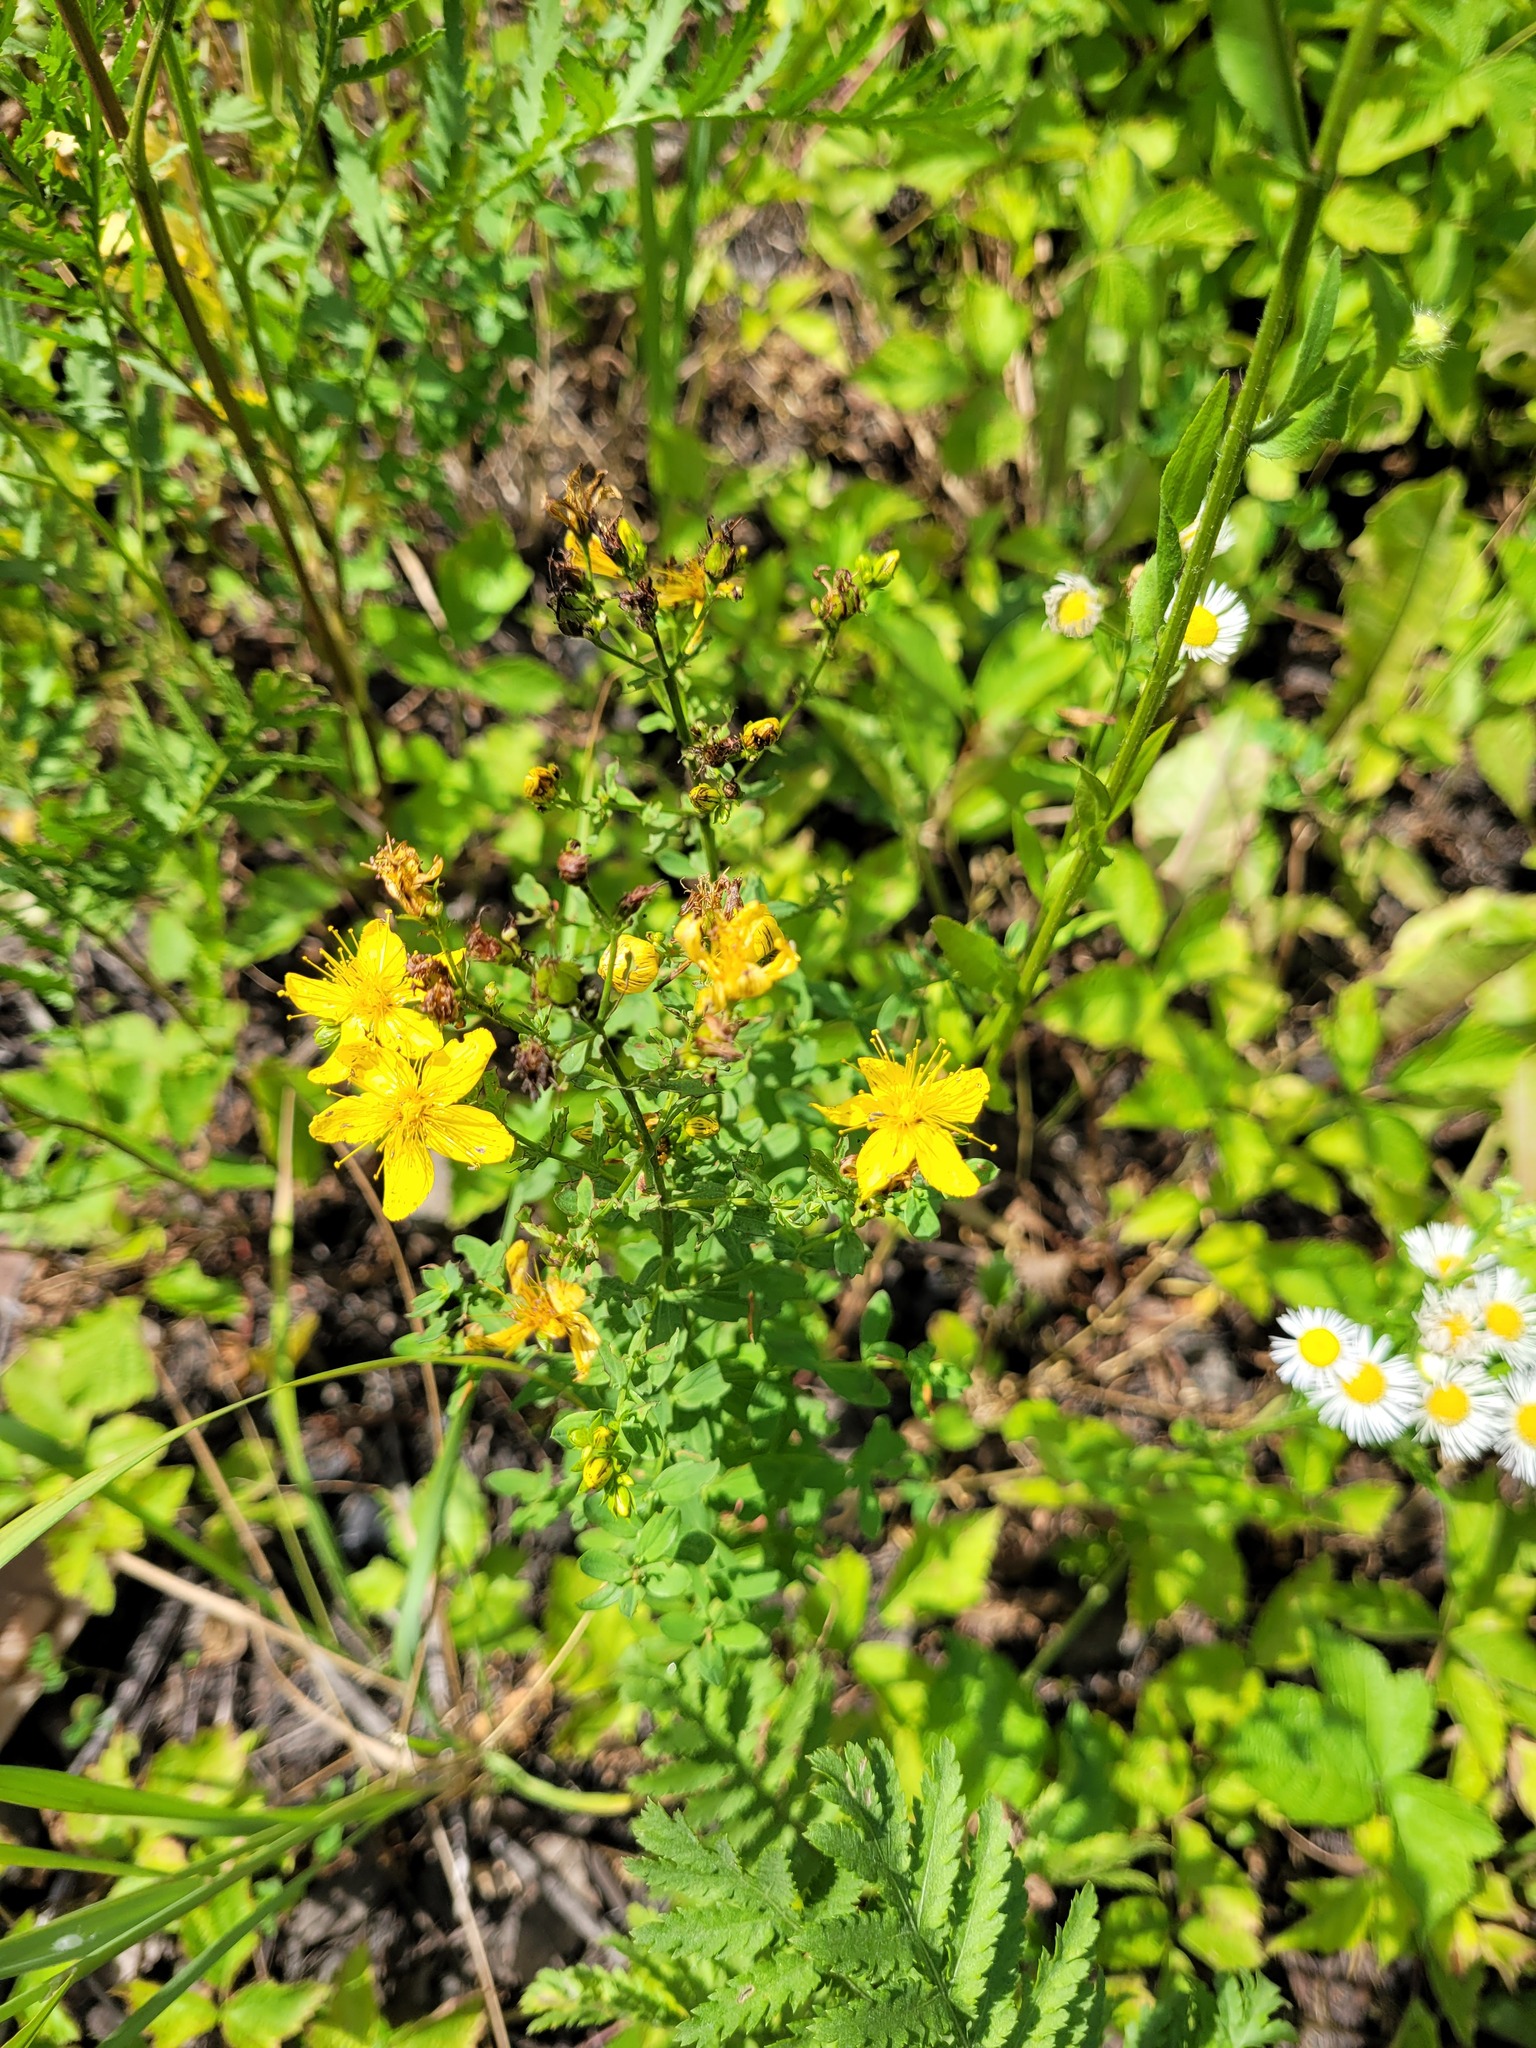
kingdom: Plantae
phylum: Tracheophyta
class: Magnoliopsida
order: Malpighiales
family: Hypericaceae
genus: Hypericum
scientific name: Hypericum perforatum
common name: Common st. johnswort
